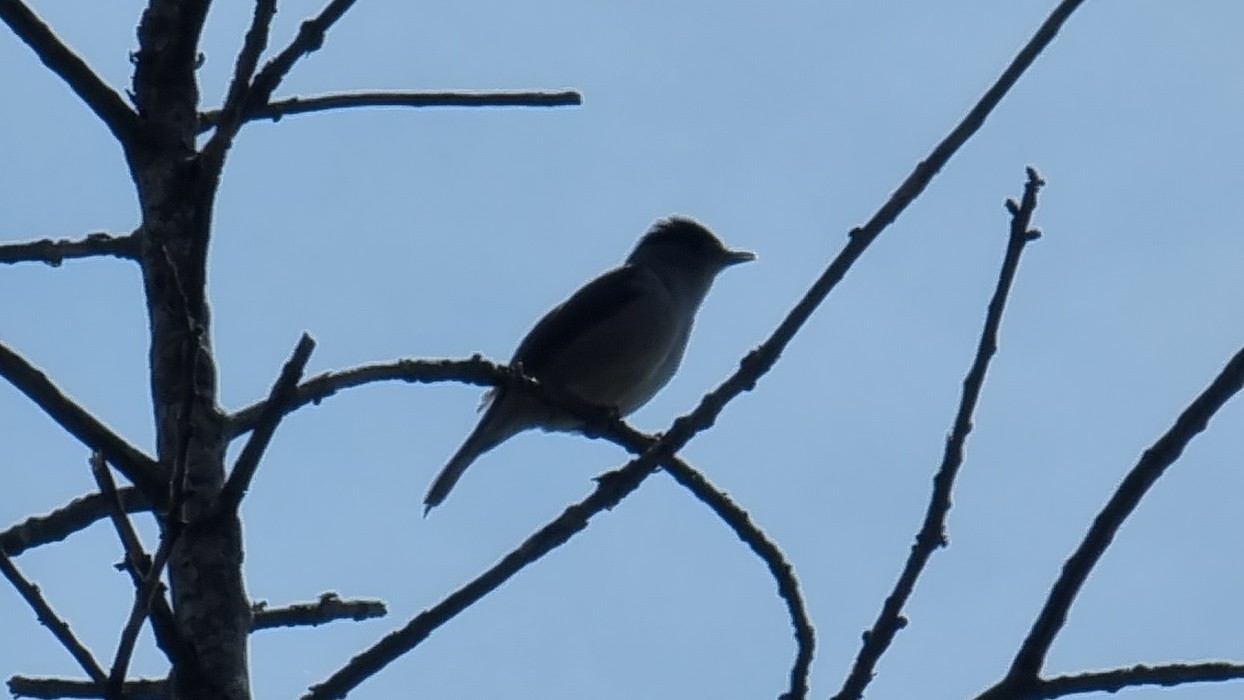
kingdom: Animalia
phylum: Chordata
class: Aves
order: Passeriformes
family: Sylviidae
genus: Sylvia
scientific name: Sylvia atricapilla
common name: Eurasian blackcap
